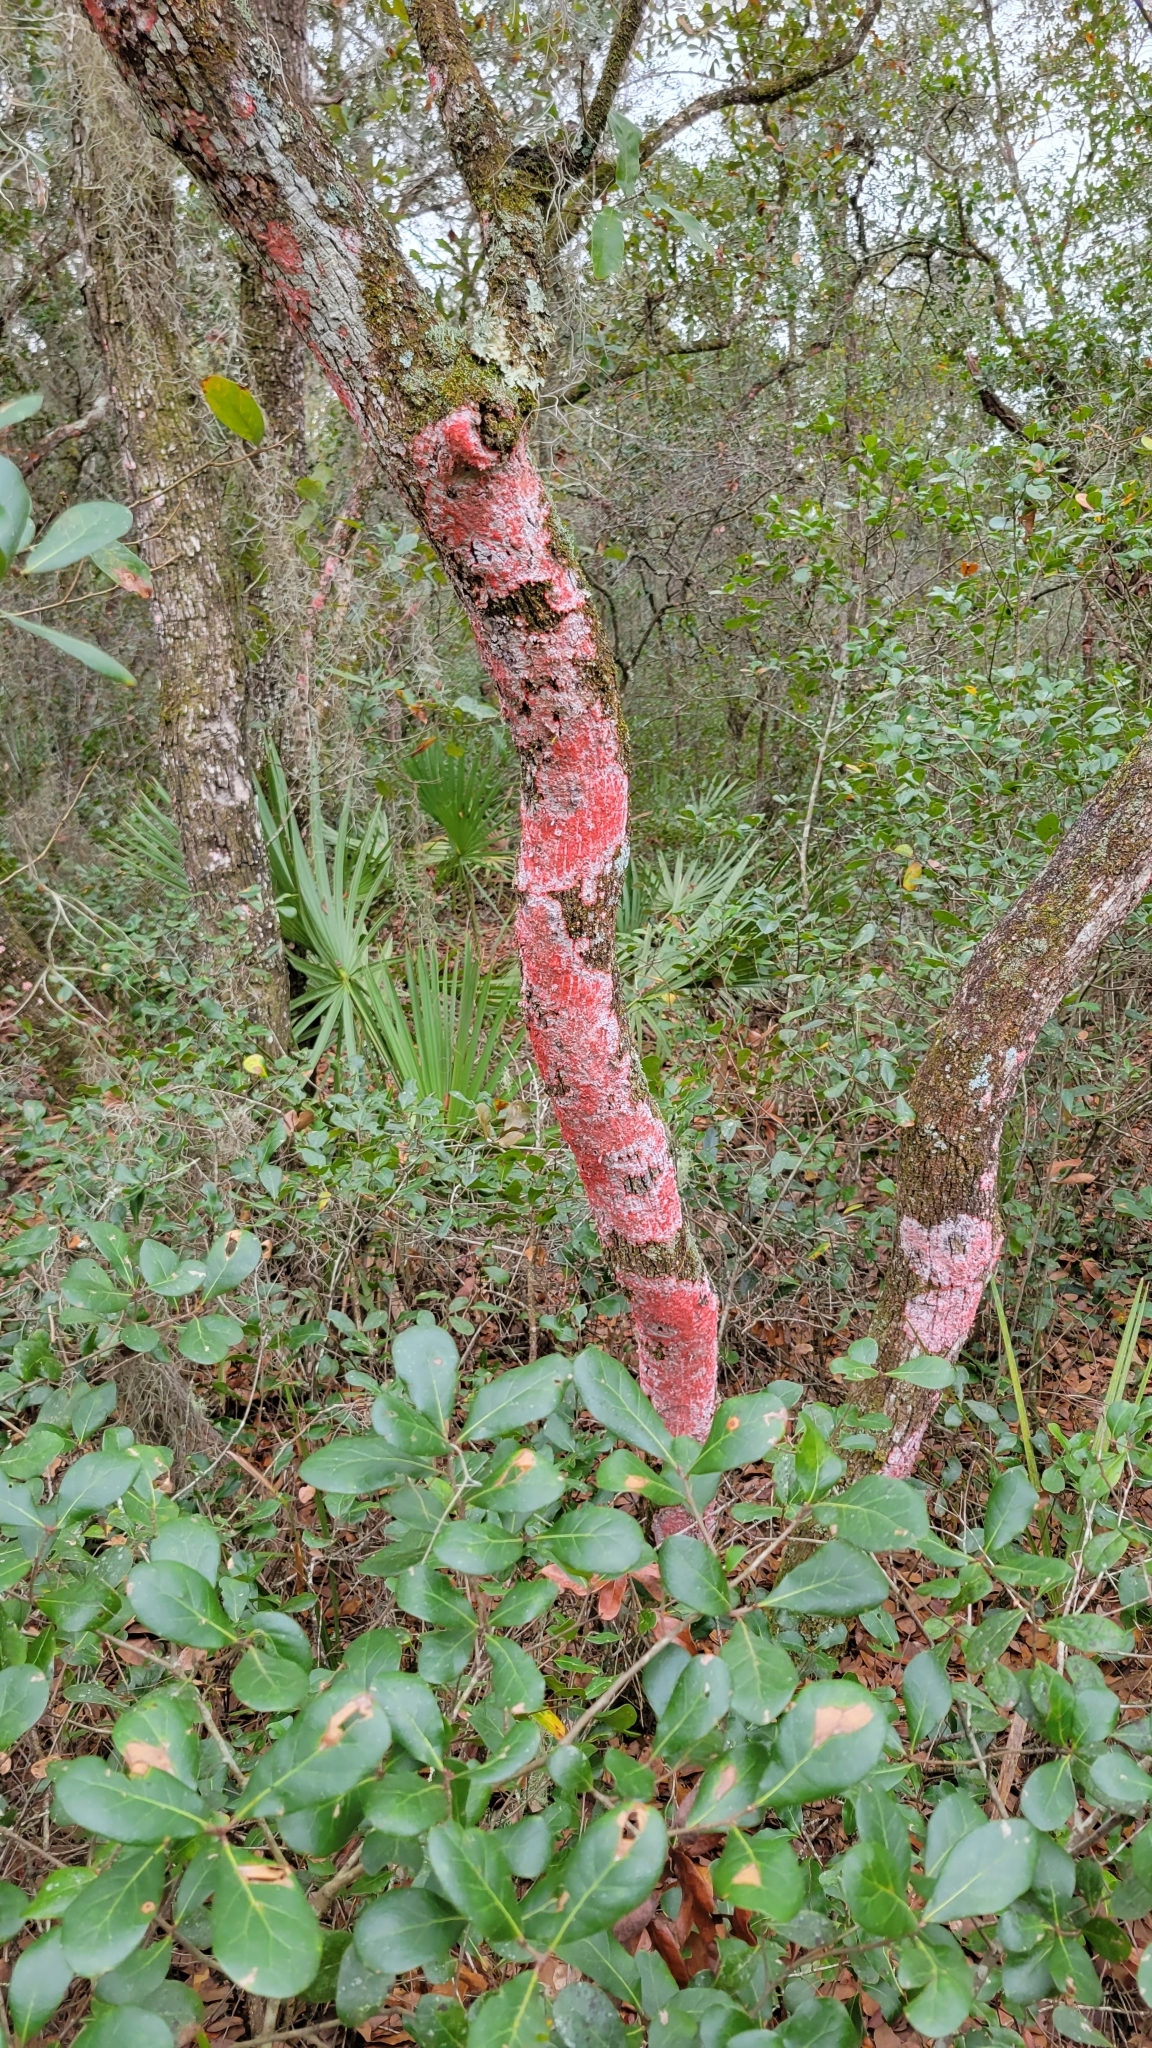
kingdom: Fungi
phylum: Ascomycota
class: Arthoniomycetes
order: Arthoniales
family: Arthoniaceae
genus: Herpothallon
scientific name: Herpothallon rubrocinctum
